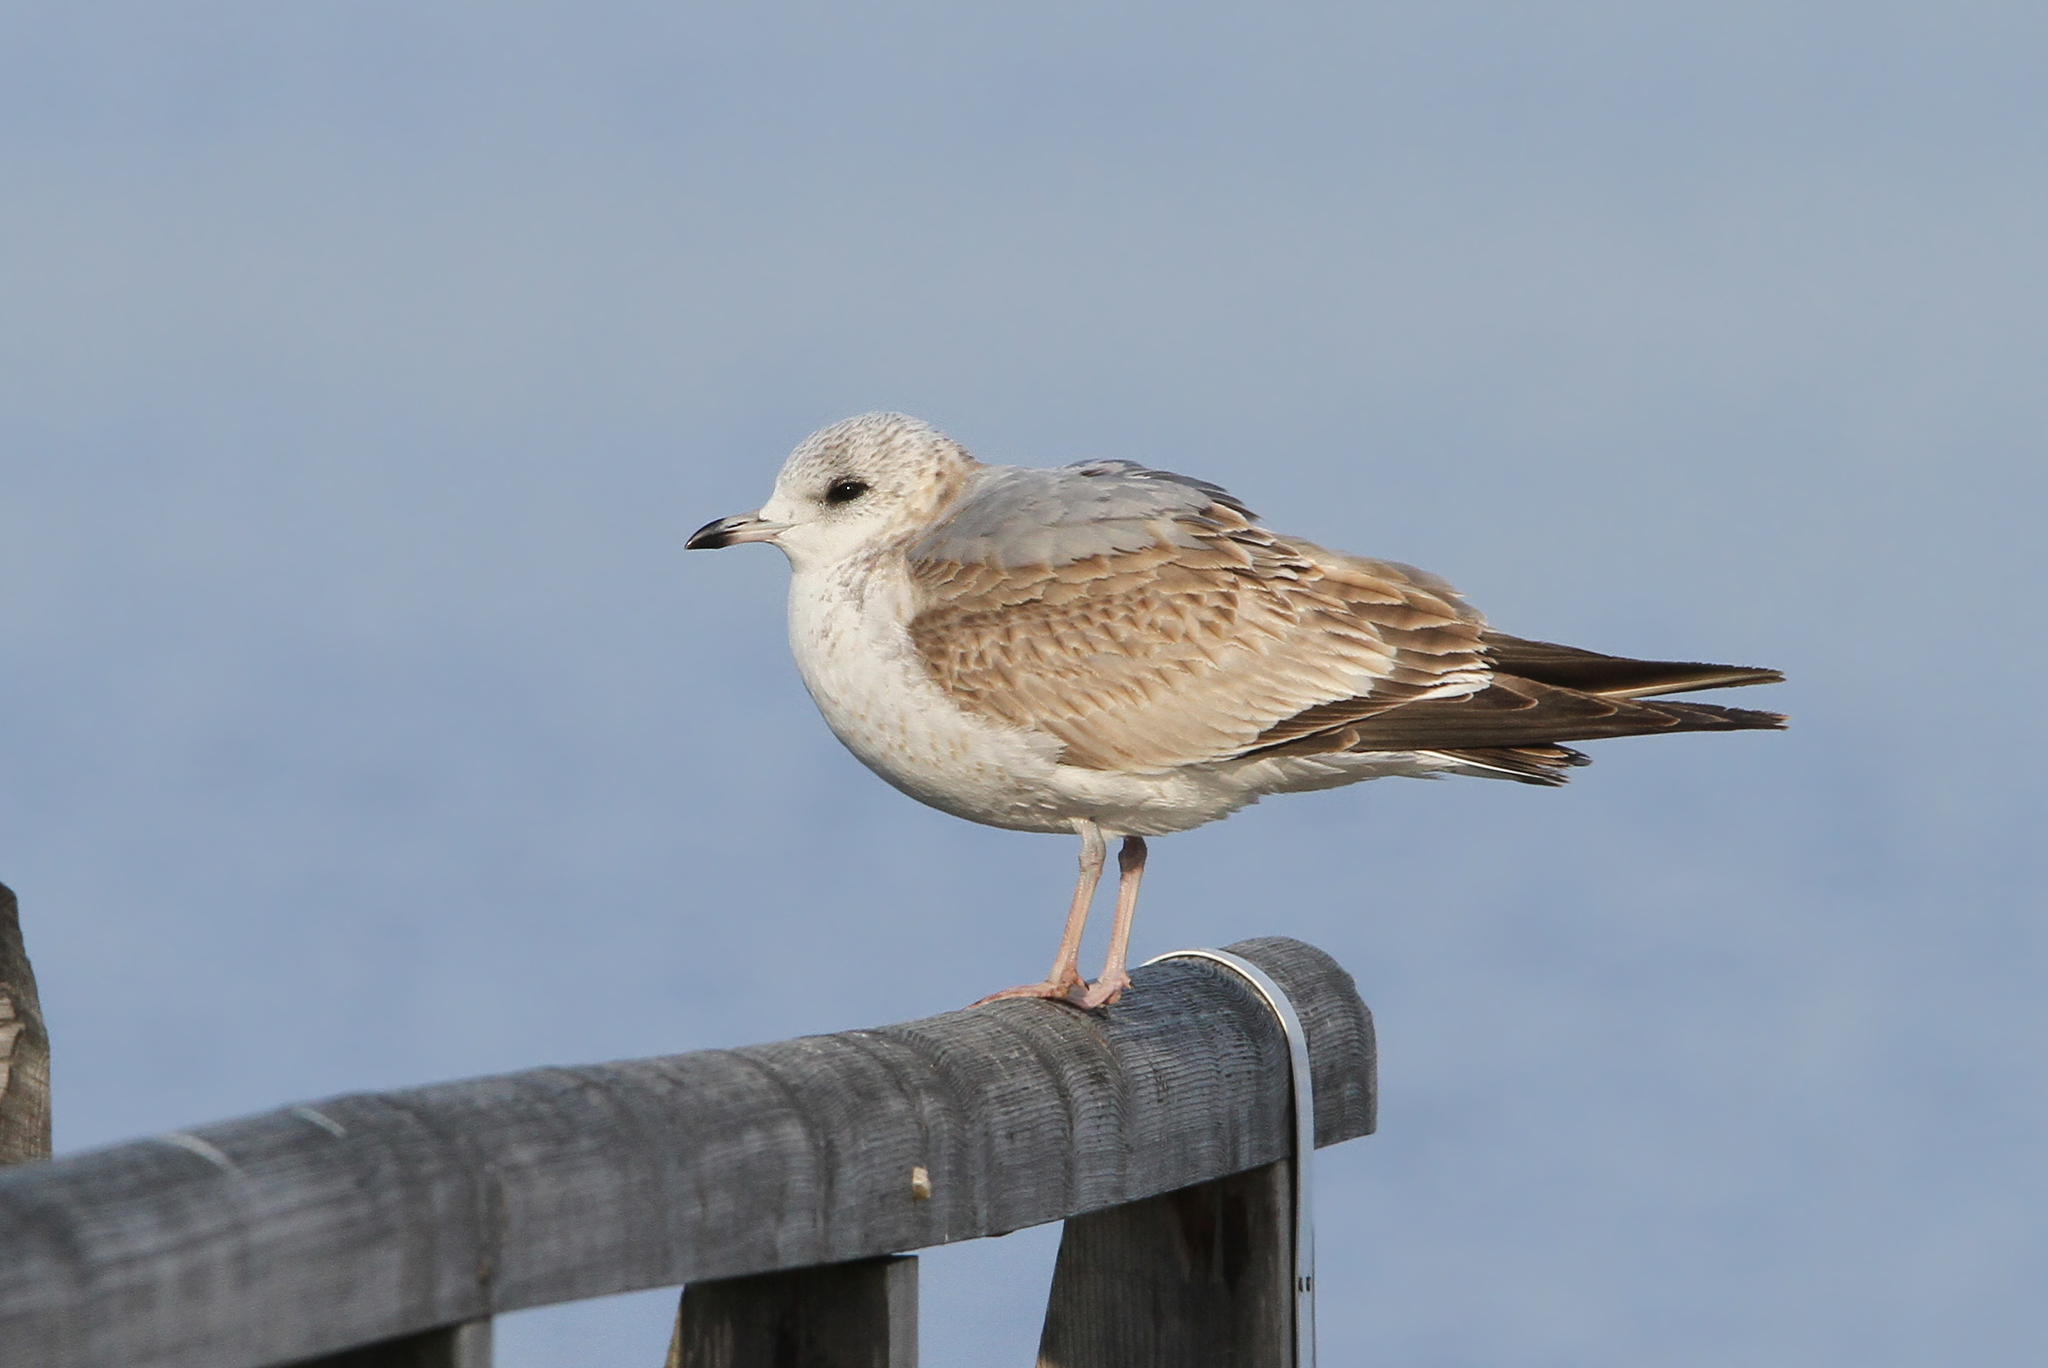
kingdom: Animalia
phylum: Chordata
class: Aves
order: Charadriiformes
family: Laridae
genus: Larus
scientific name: Larus canus
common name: Mew gull
